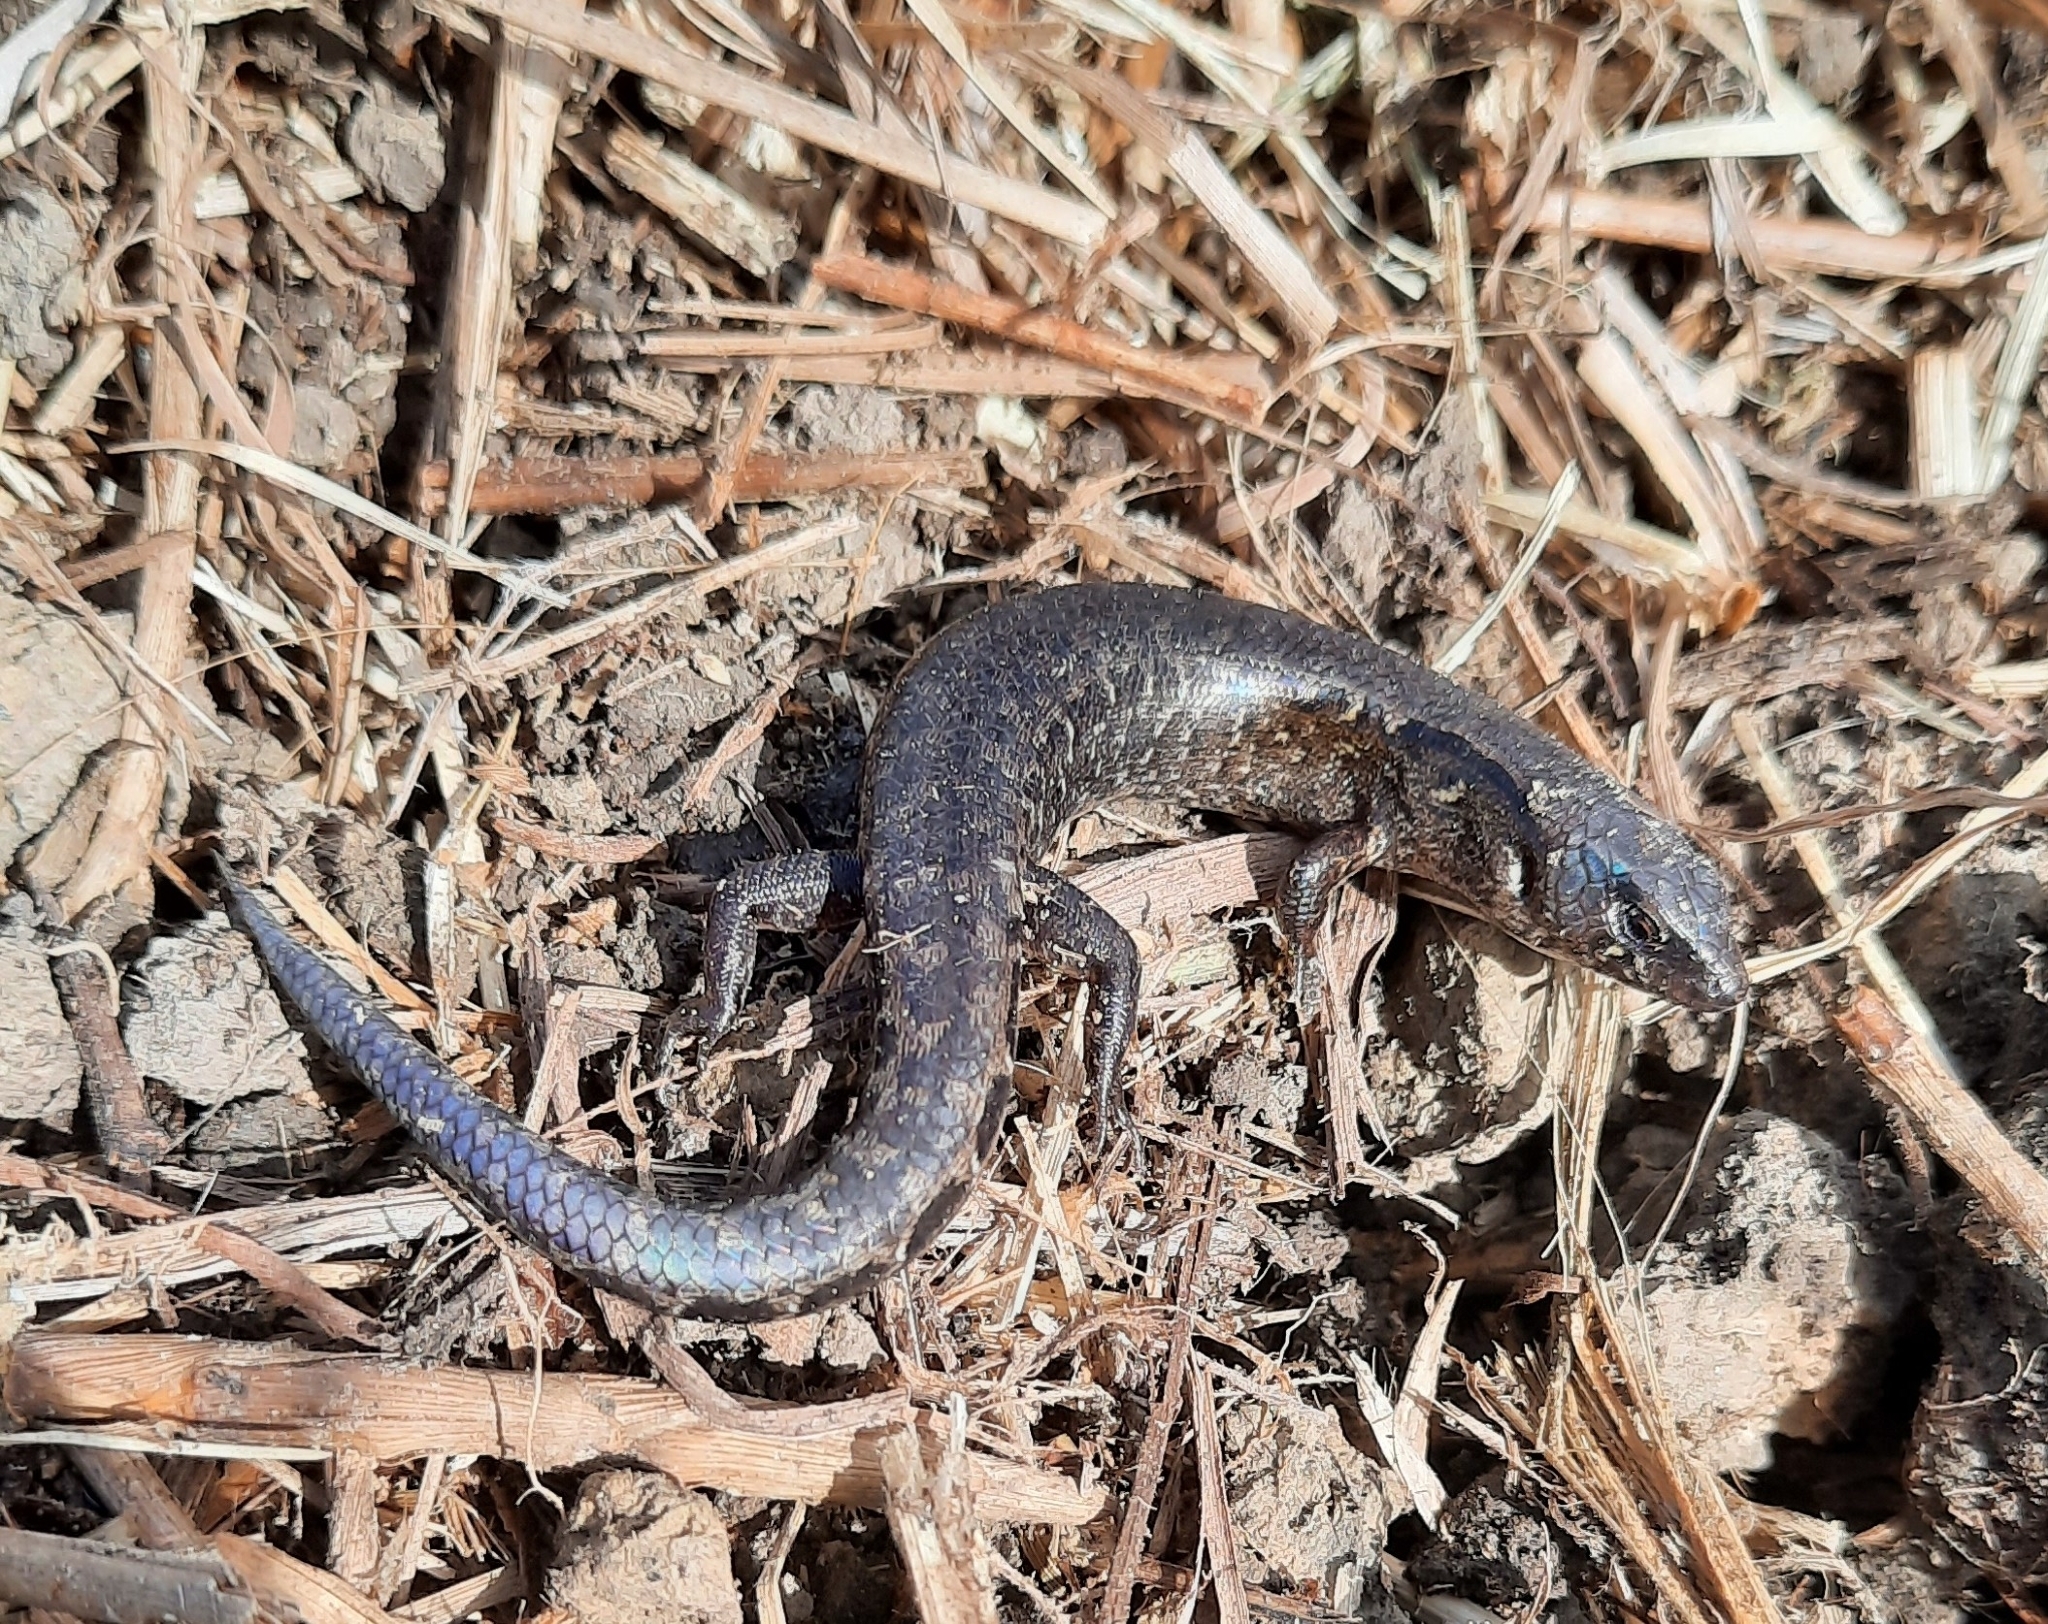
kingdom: Animalia
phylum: Chordata
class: Squamata
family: Scincidae
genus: Oligosoma
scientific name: Oligosoma ornatum
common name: Gray's ornate skink
